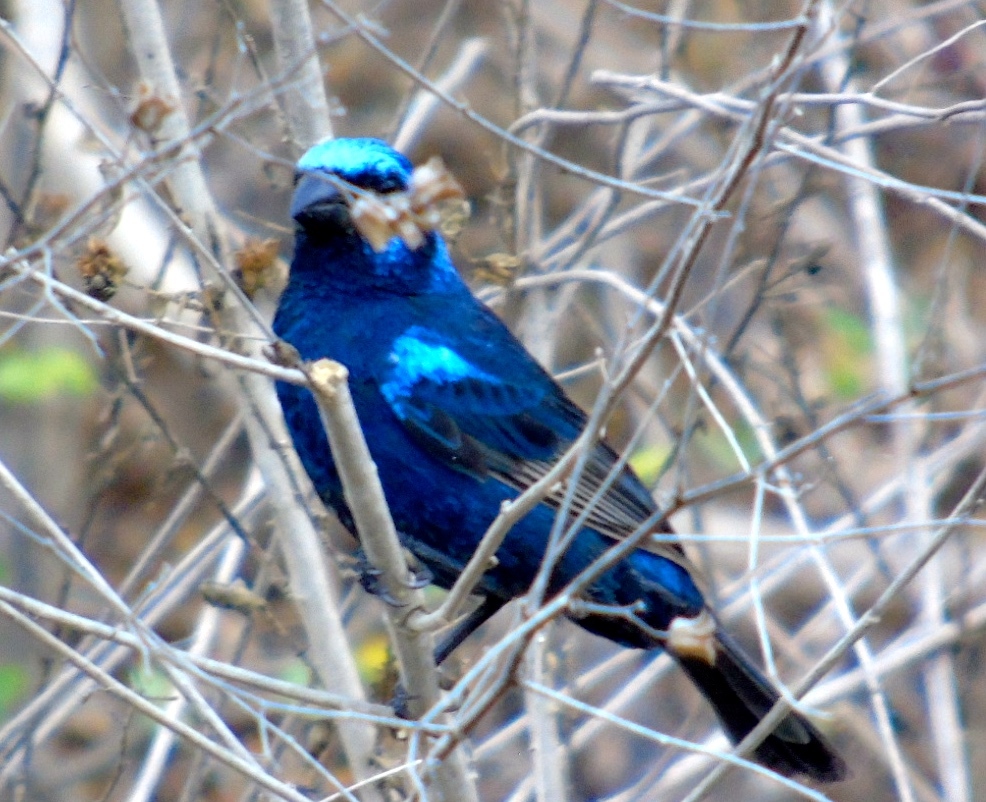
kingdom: Animalia
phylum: Chordata
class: Aves
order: Passeriformes
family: Cardinalidae
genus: Cyanocompsa
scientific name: Cyanocompsa parellina
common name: Blue bunting
